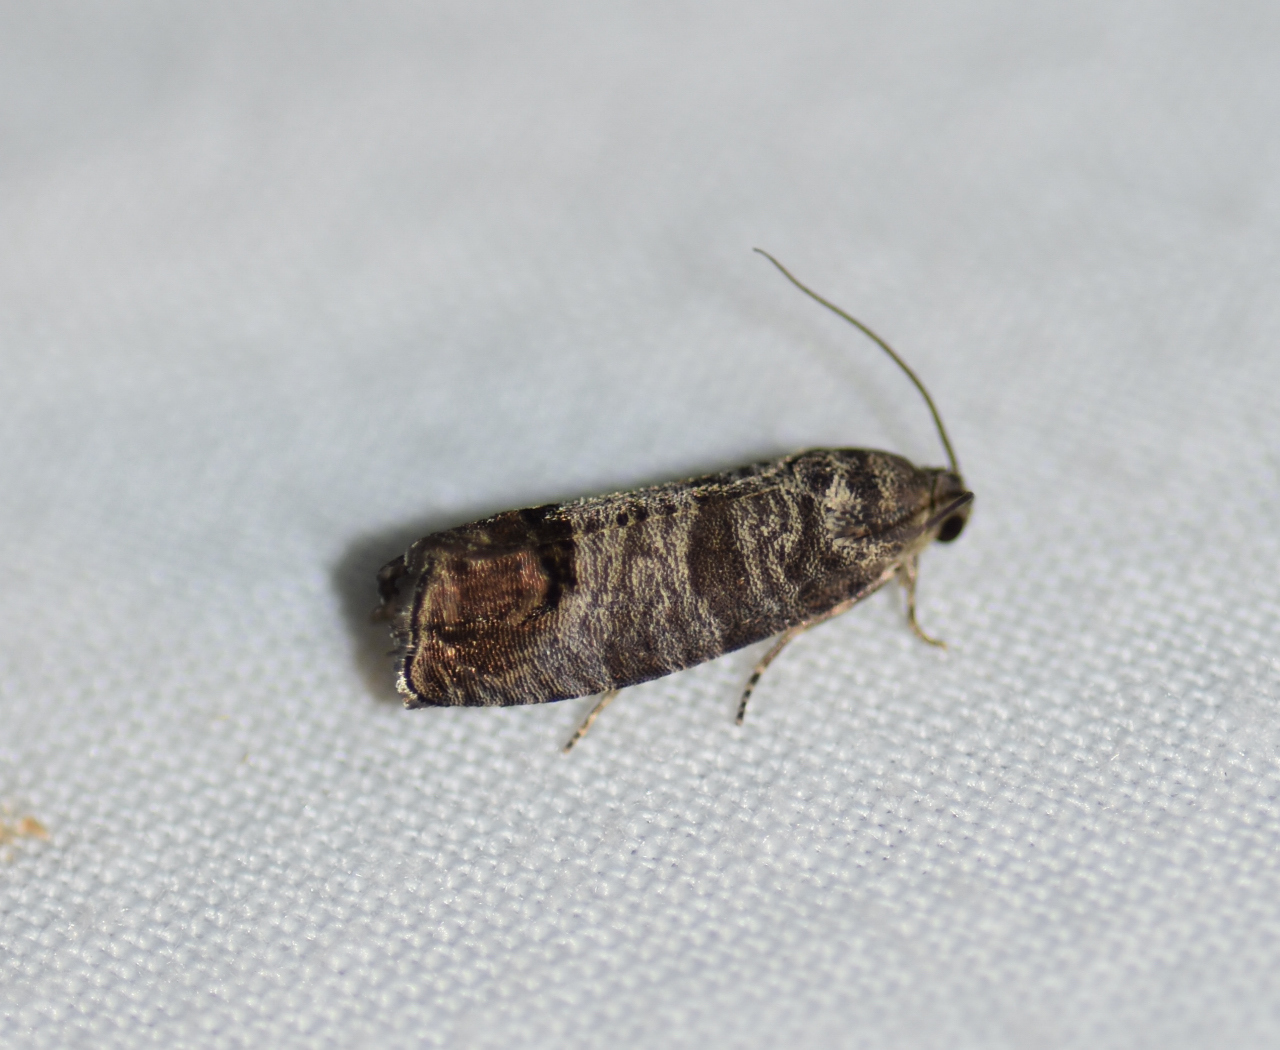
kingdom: Animalia
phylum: Arthropoda
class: Insecta
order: Lepidoptera
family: Tortricidae
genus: Cydia
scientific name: Cydia pomonella
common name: Codling moth
